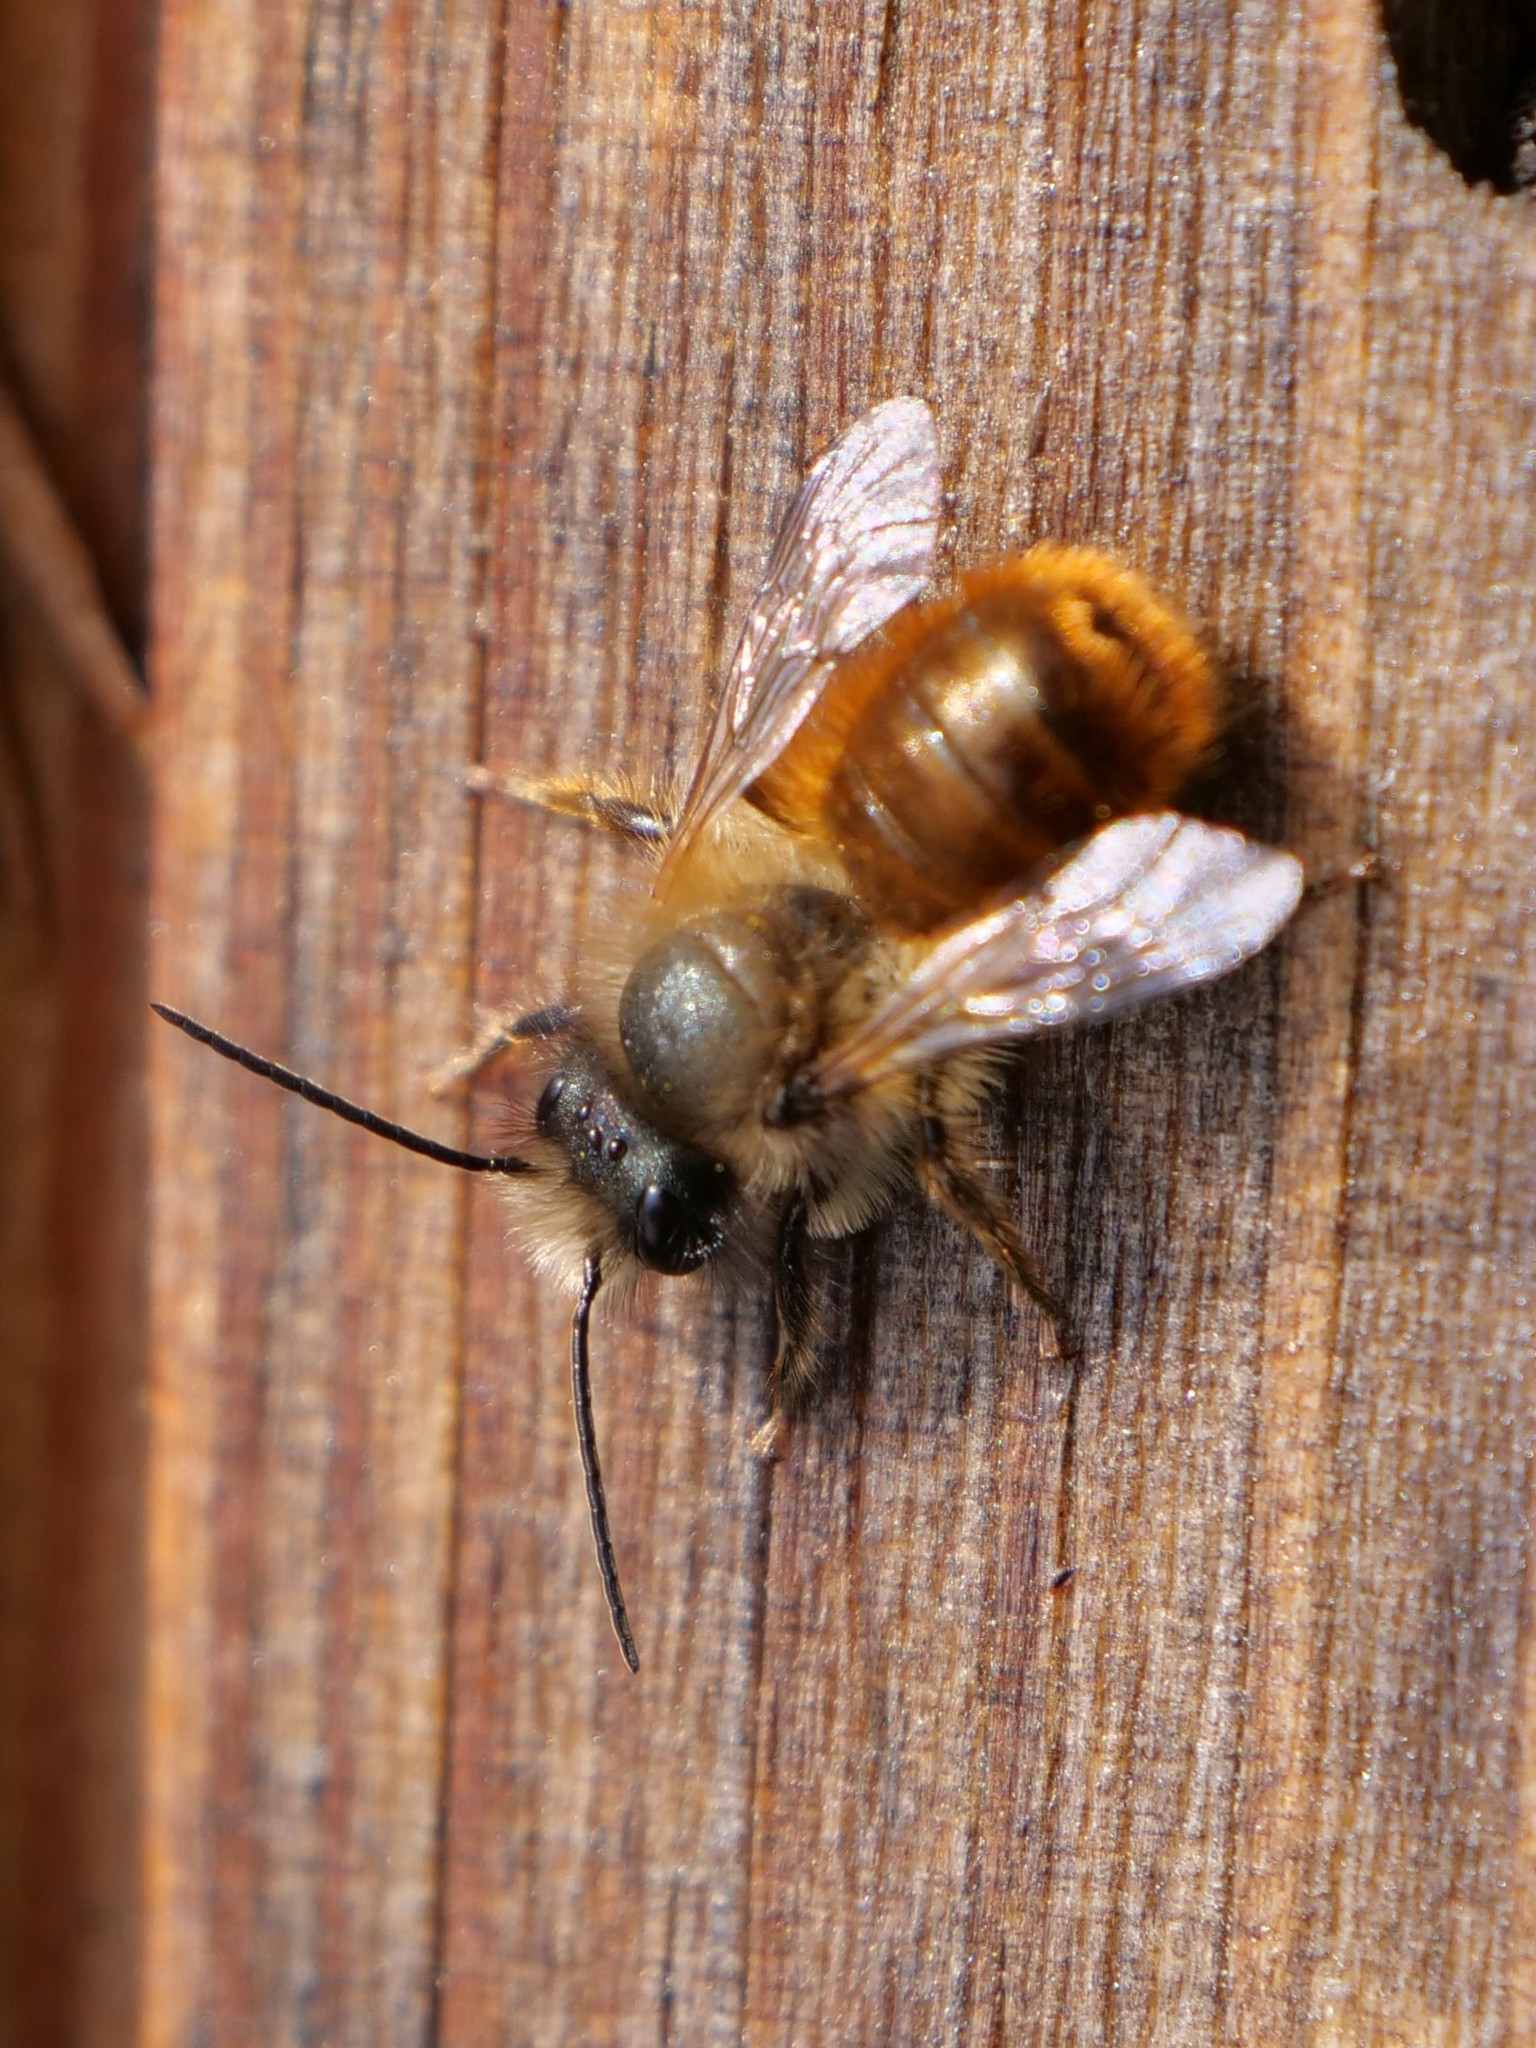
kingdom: Animalia
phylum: Arthropoda
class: Insecta
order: Hymenoptera
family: Megachilidae
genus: Osmia
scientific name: Osmia bicornis
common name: Red mason bee
